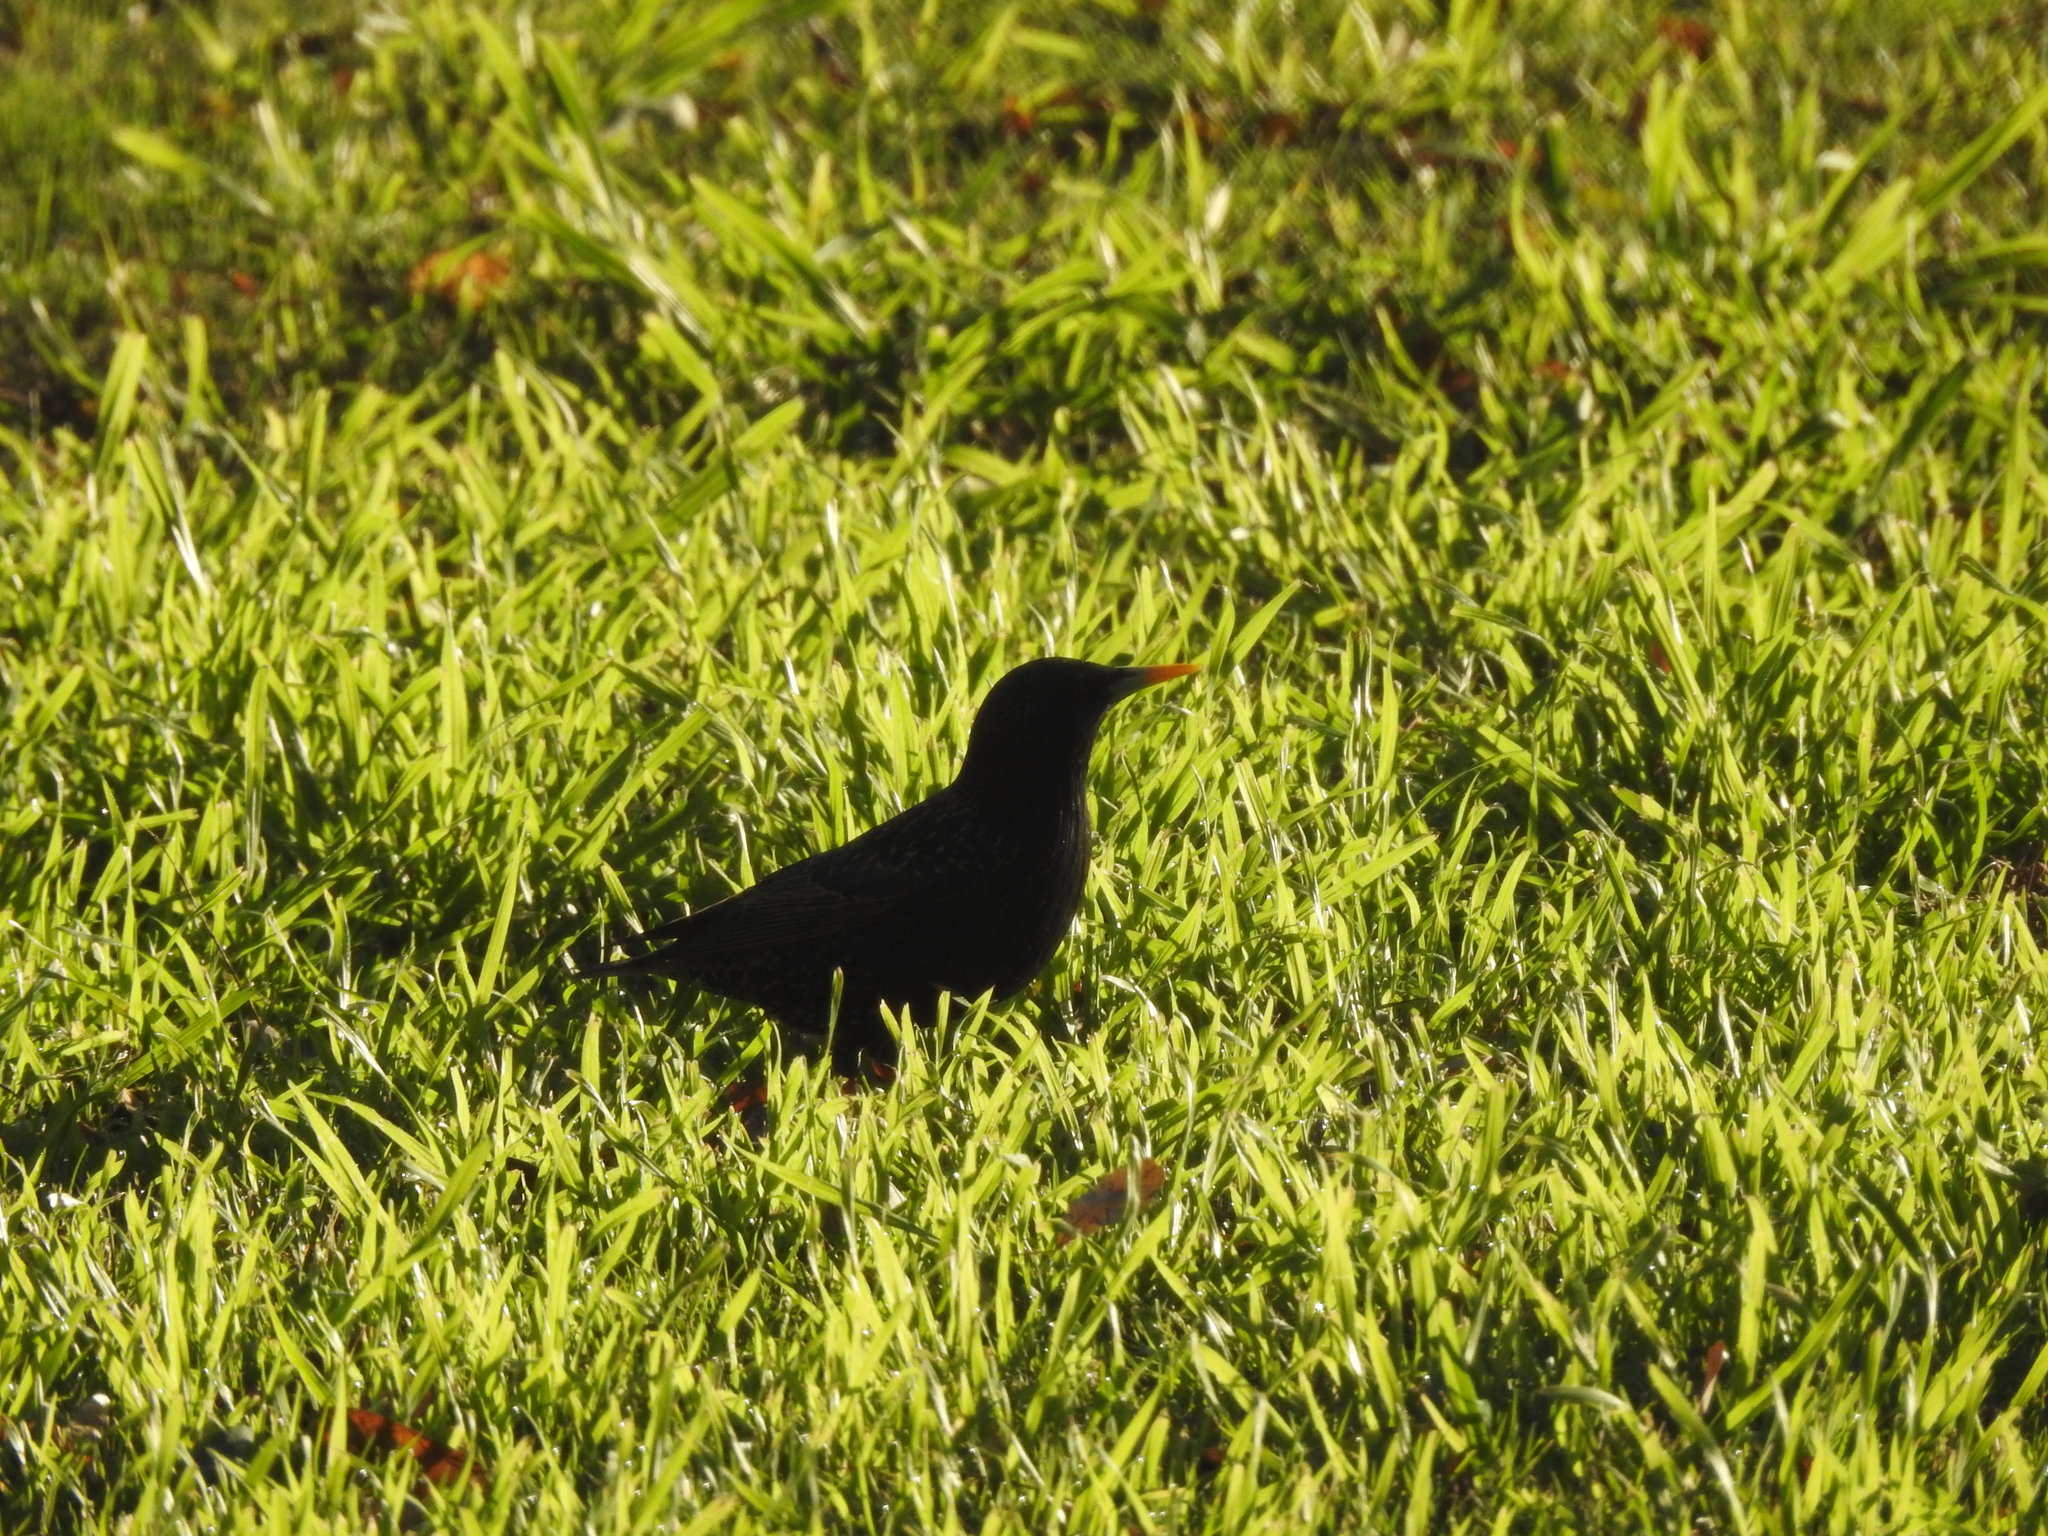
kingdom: Animalia
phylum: Chordata
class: Aves
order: Passeriformes
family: Sturnidae
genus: Sturnus
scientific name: Sturnus vulgaris
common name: Common starling
